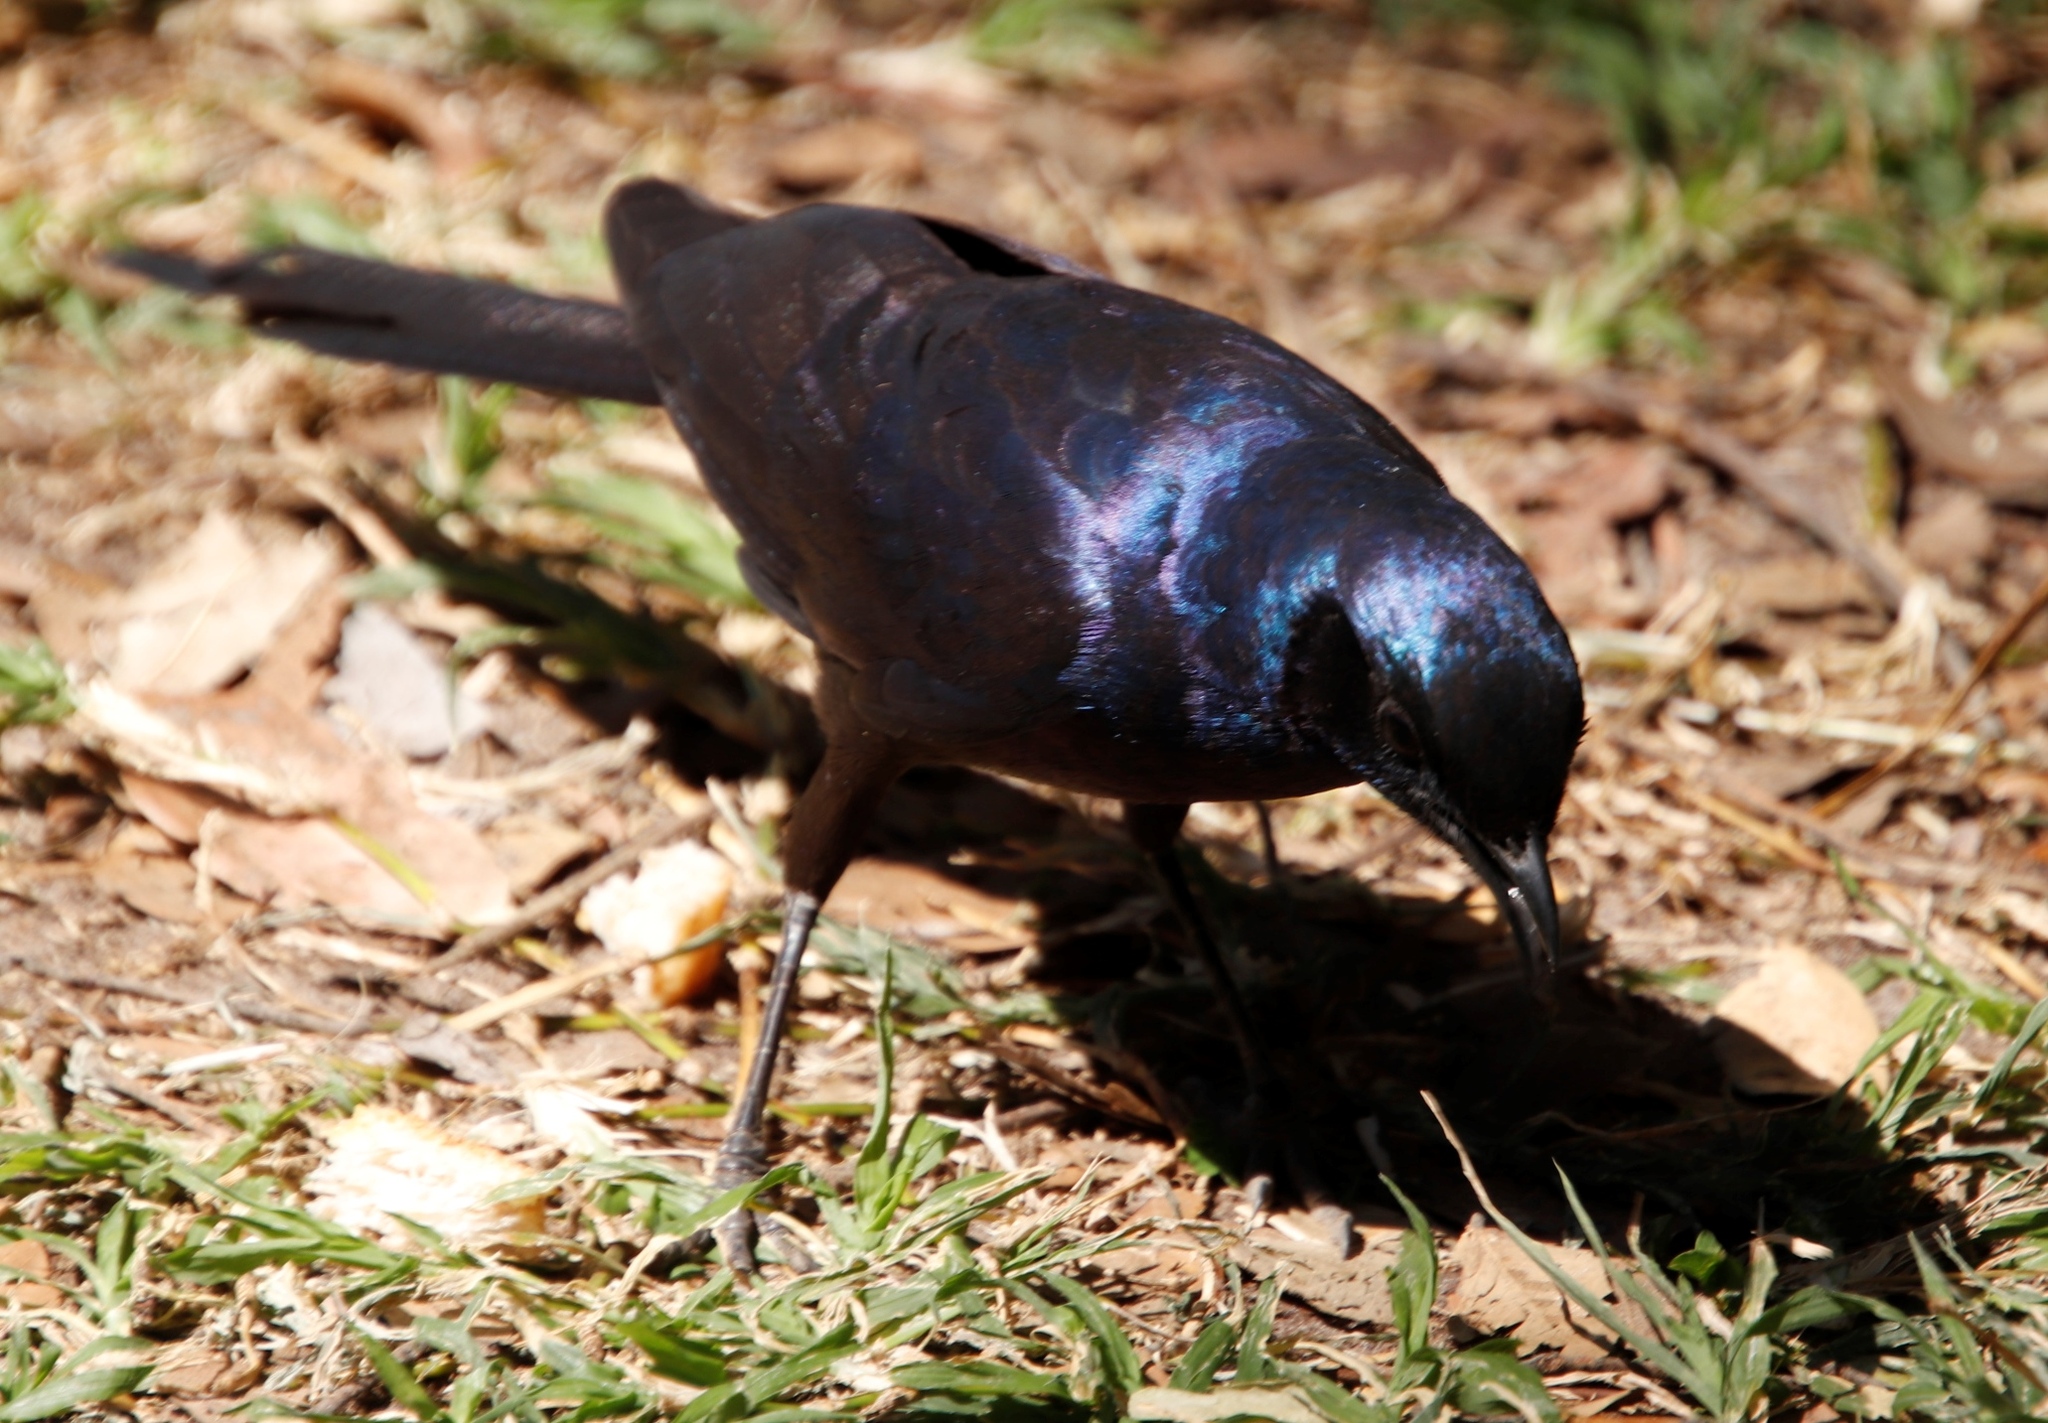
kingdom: Animalia
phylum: Chordata
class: Aves
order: Passeriformes
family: Sturnidae
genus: Lamprotornis
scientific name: Lamprotornis mevesii
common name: Meves's starling
